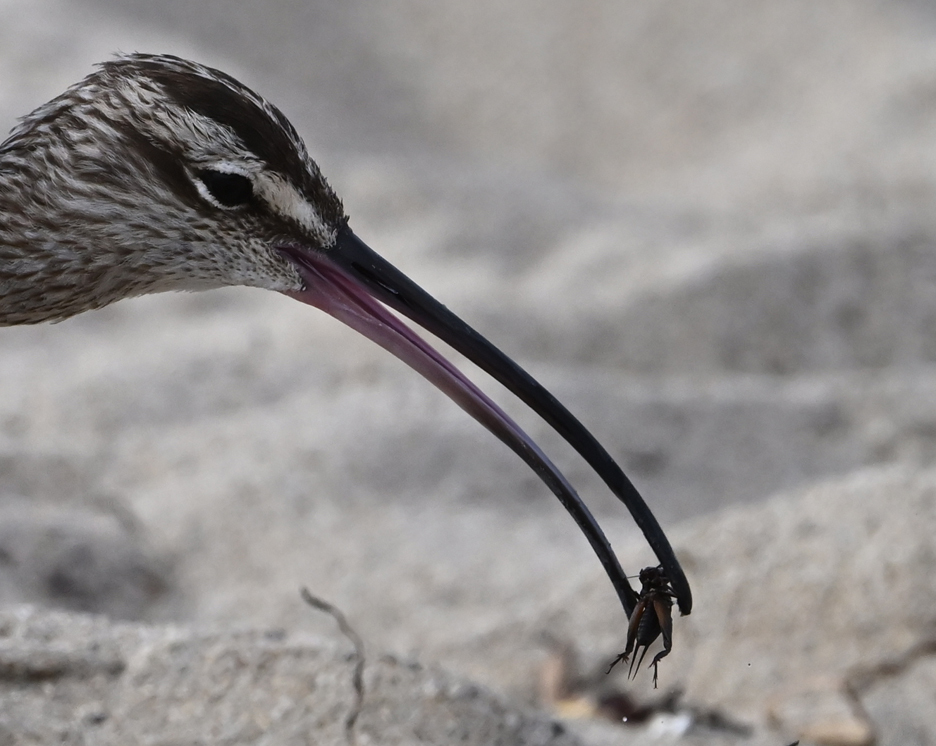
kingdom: Animalia
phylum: Chordata
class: Aves
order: Charadriiformes
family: Scolopacidae
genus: Numenius
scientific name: Numenius phaeopus
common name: Whimbrel
